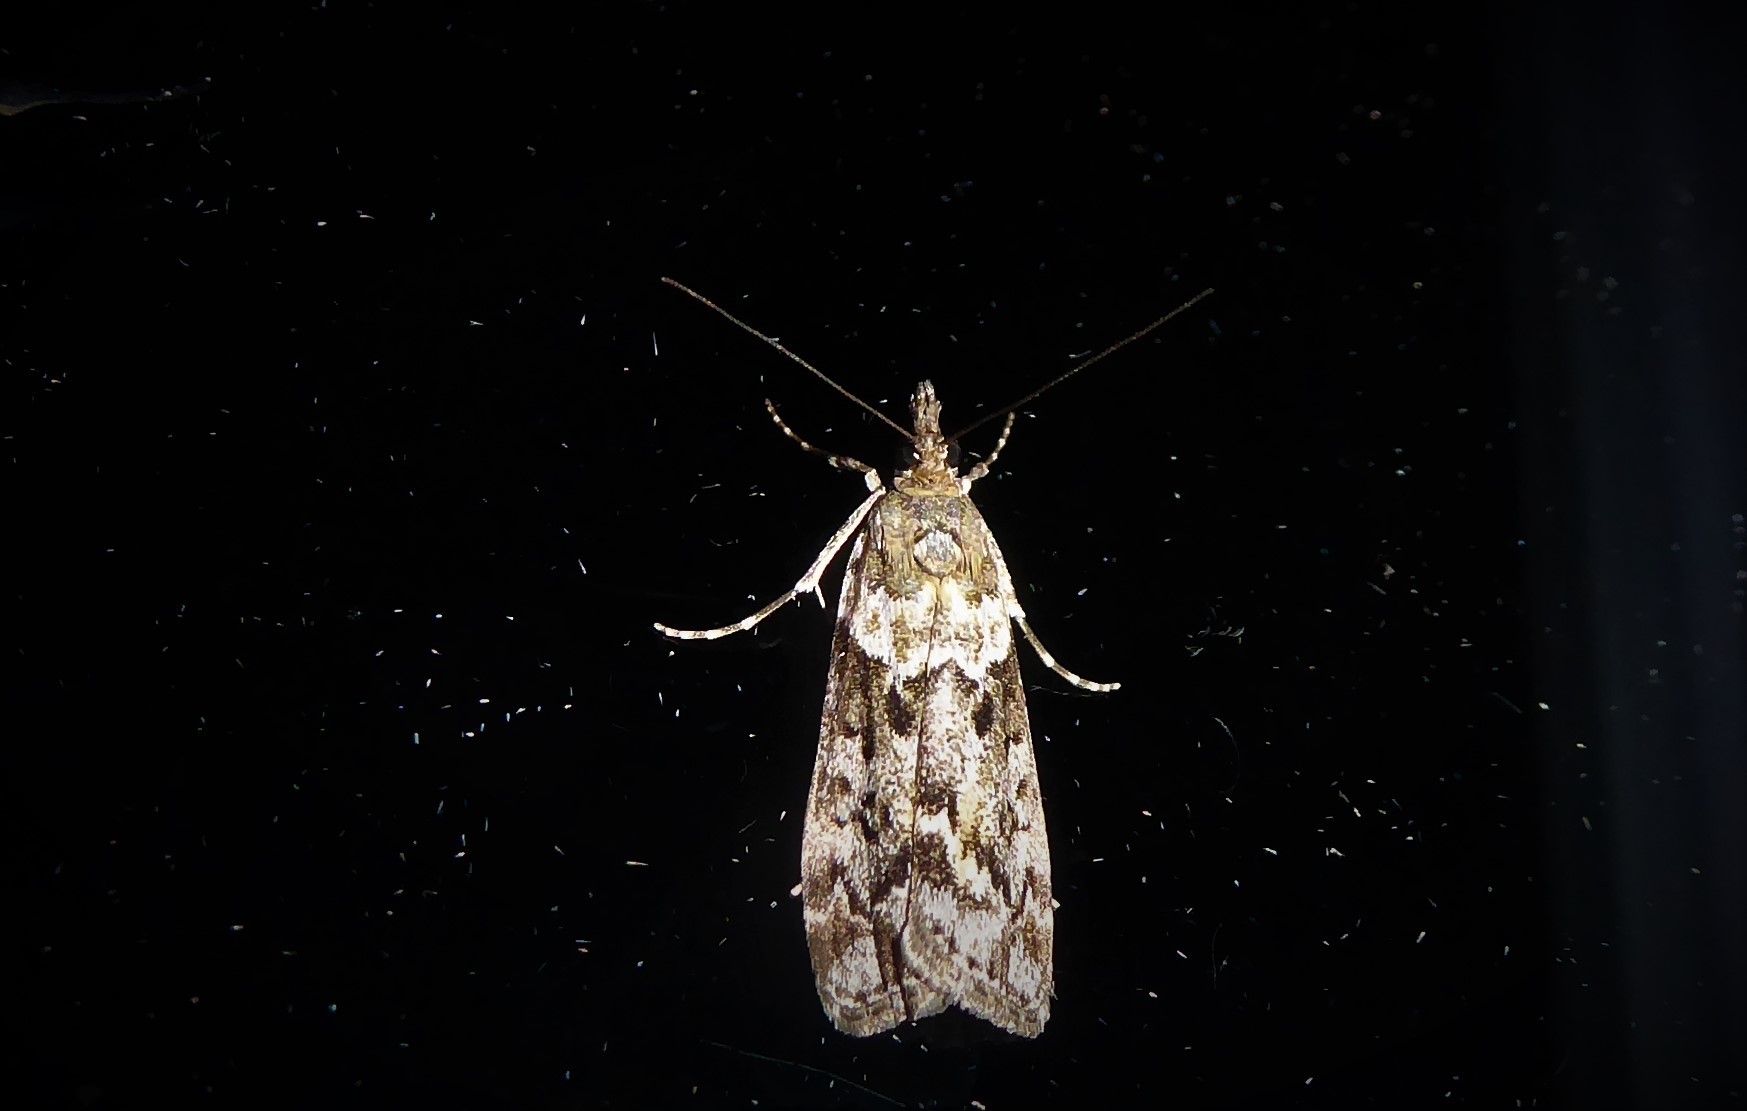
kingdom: Animalia
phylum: Arthropoda
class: Insecta
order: Lepidoptera
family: Crambidae
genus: Eudonia
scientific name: Eudonia submarginalis
